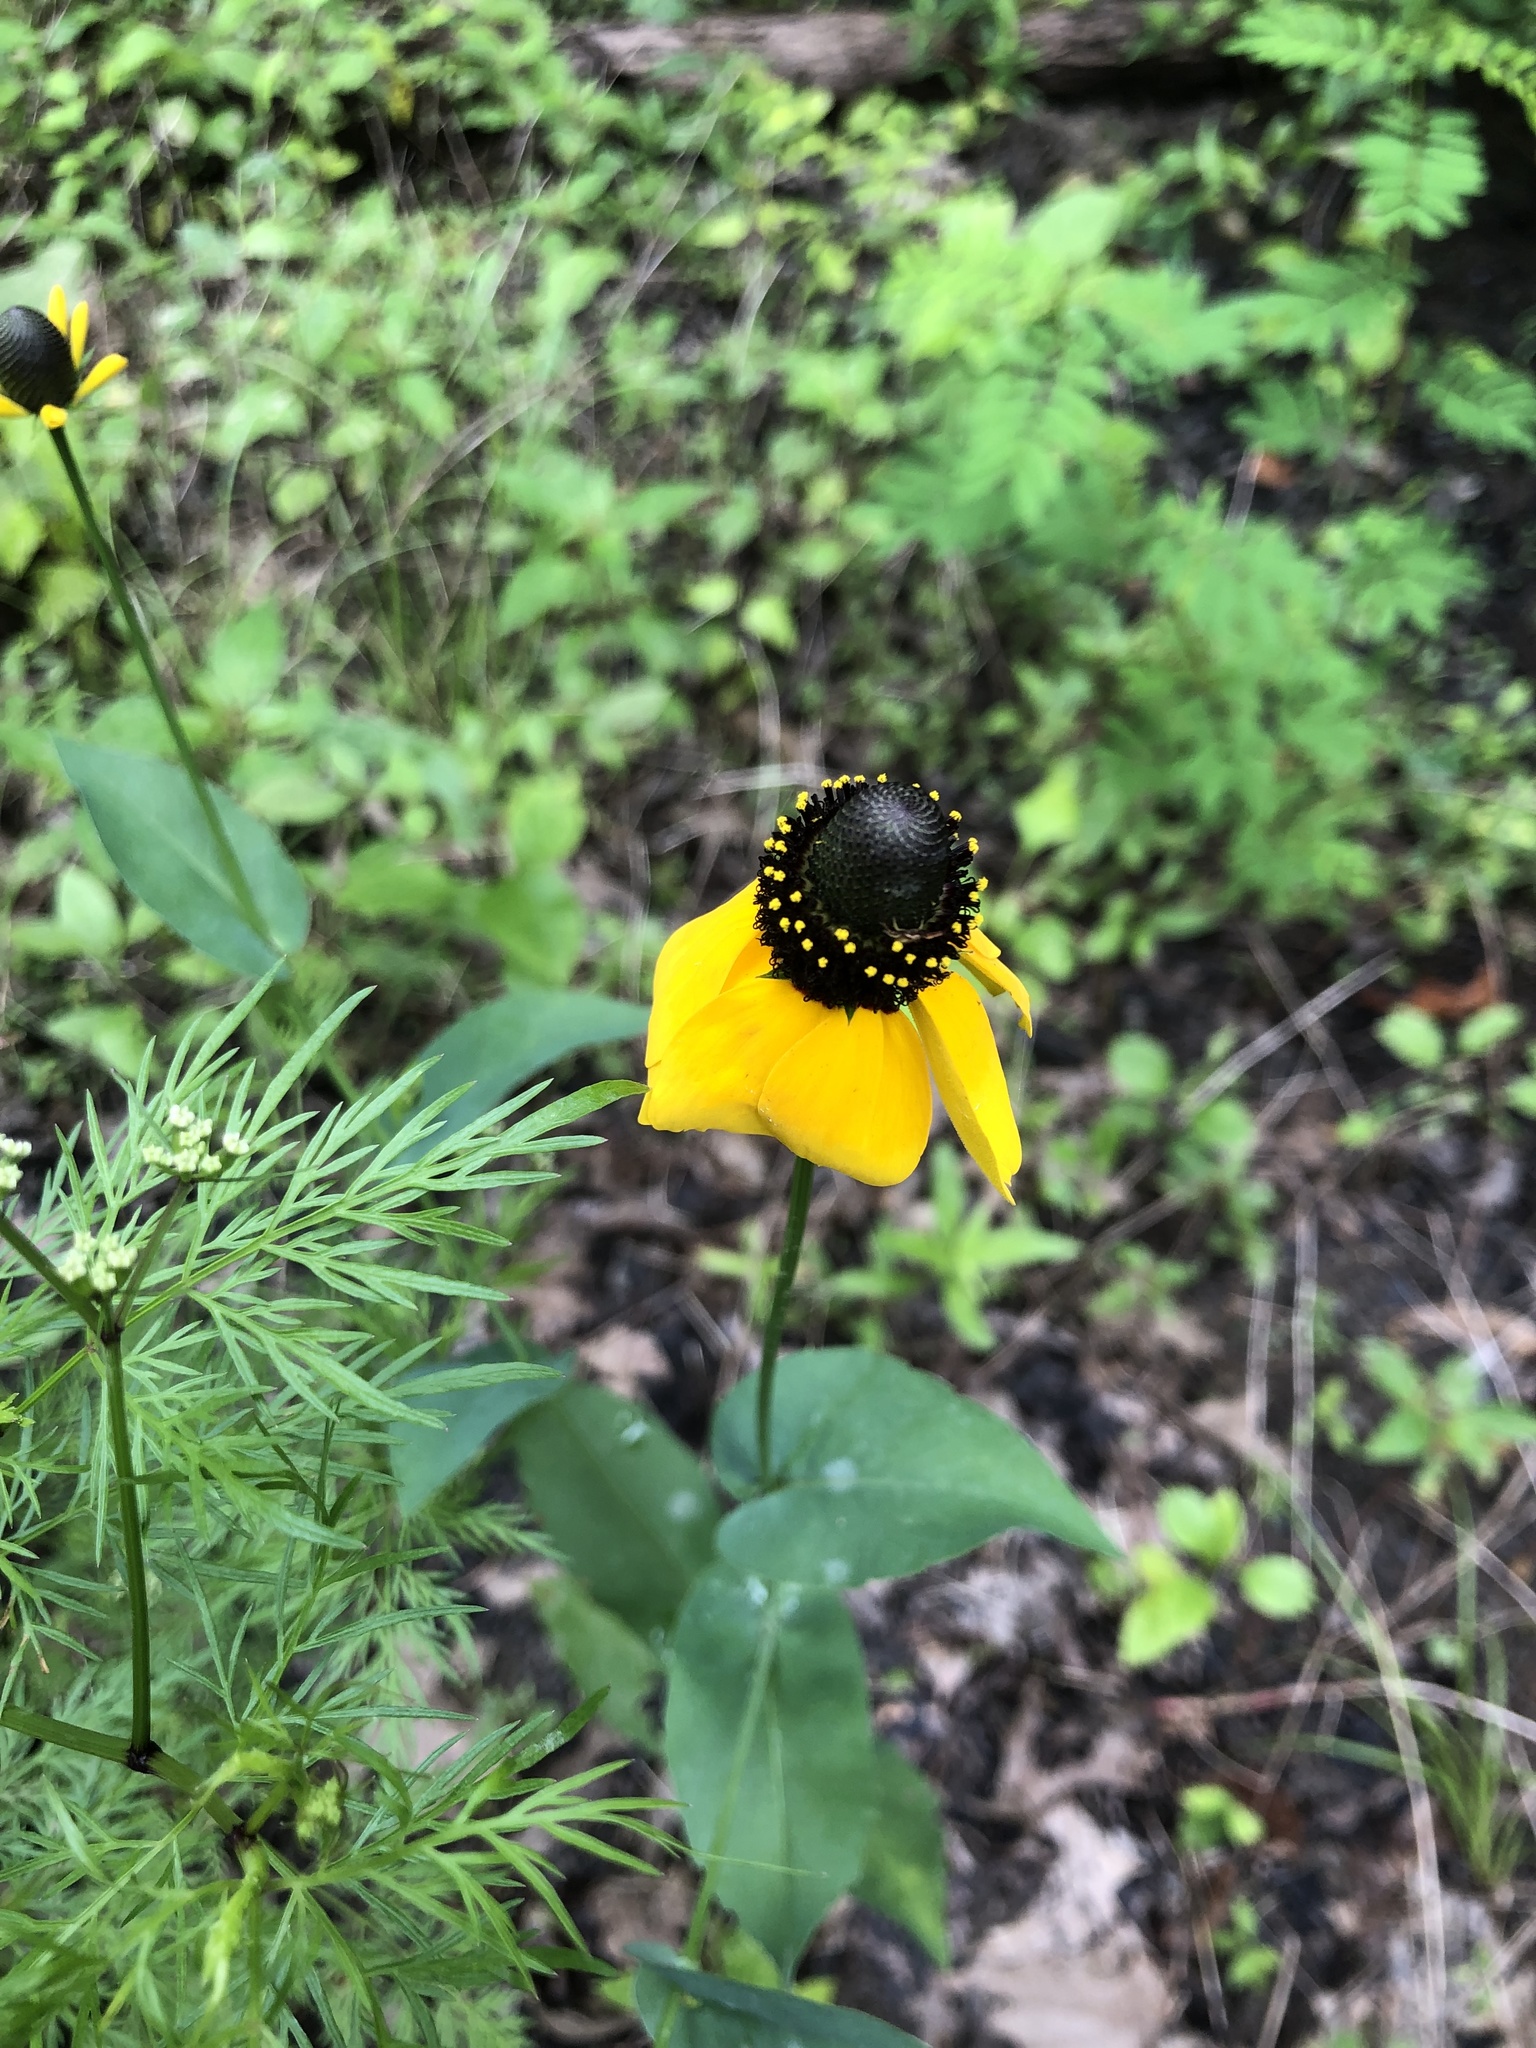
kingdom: Plantae
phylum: Tracheophyta
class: Magnoliopsida
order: Asterales
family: Asteraceae
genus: Rudbeckia
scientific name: Rudbeckia amplexicaulis
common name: Clasping-leaf coneflower
